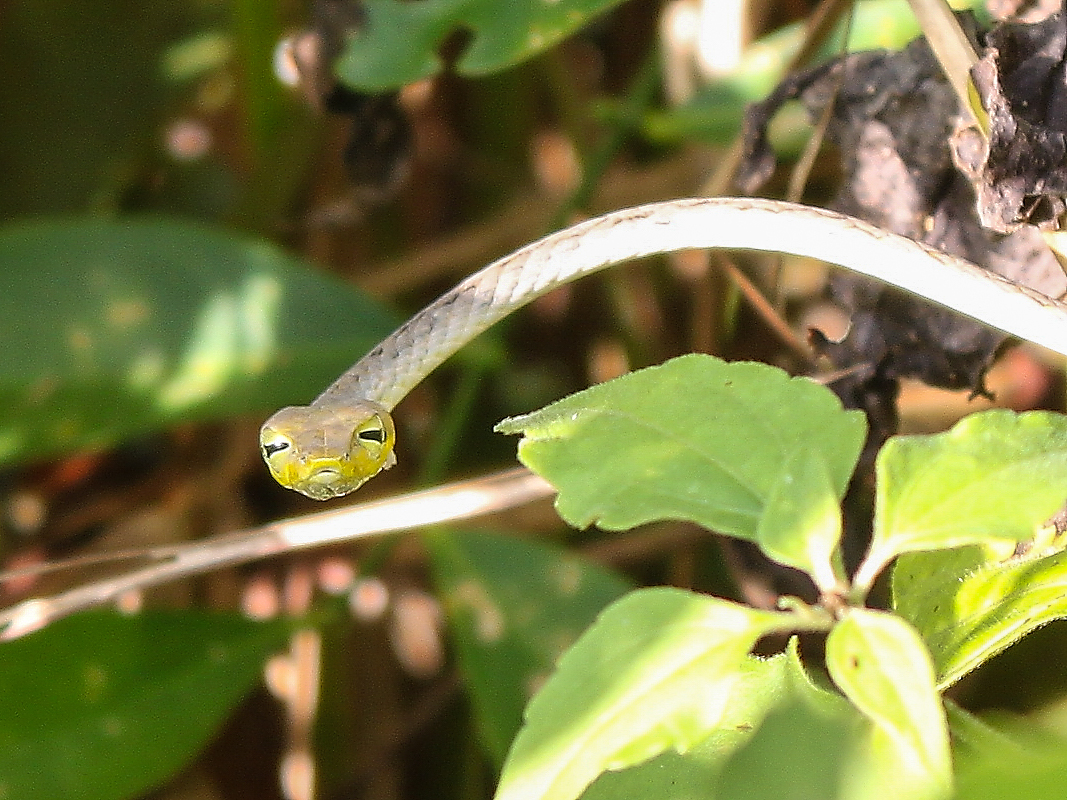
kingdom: Animalia
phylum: Chordata
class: Squamata
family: Colubridae
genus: Ahaetulla
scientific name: Ahaetulla prasina
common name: Oriental whip snake
